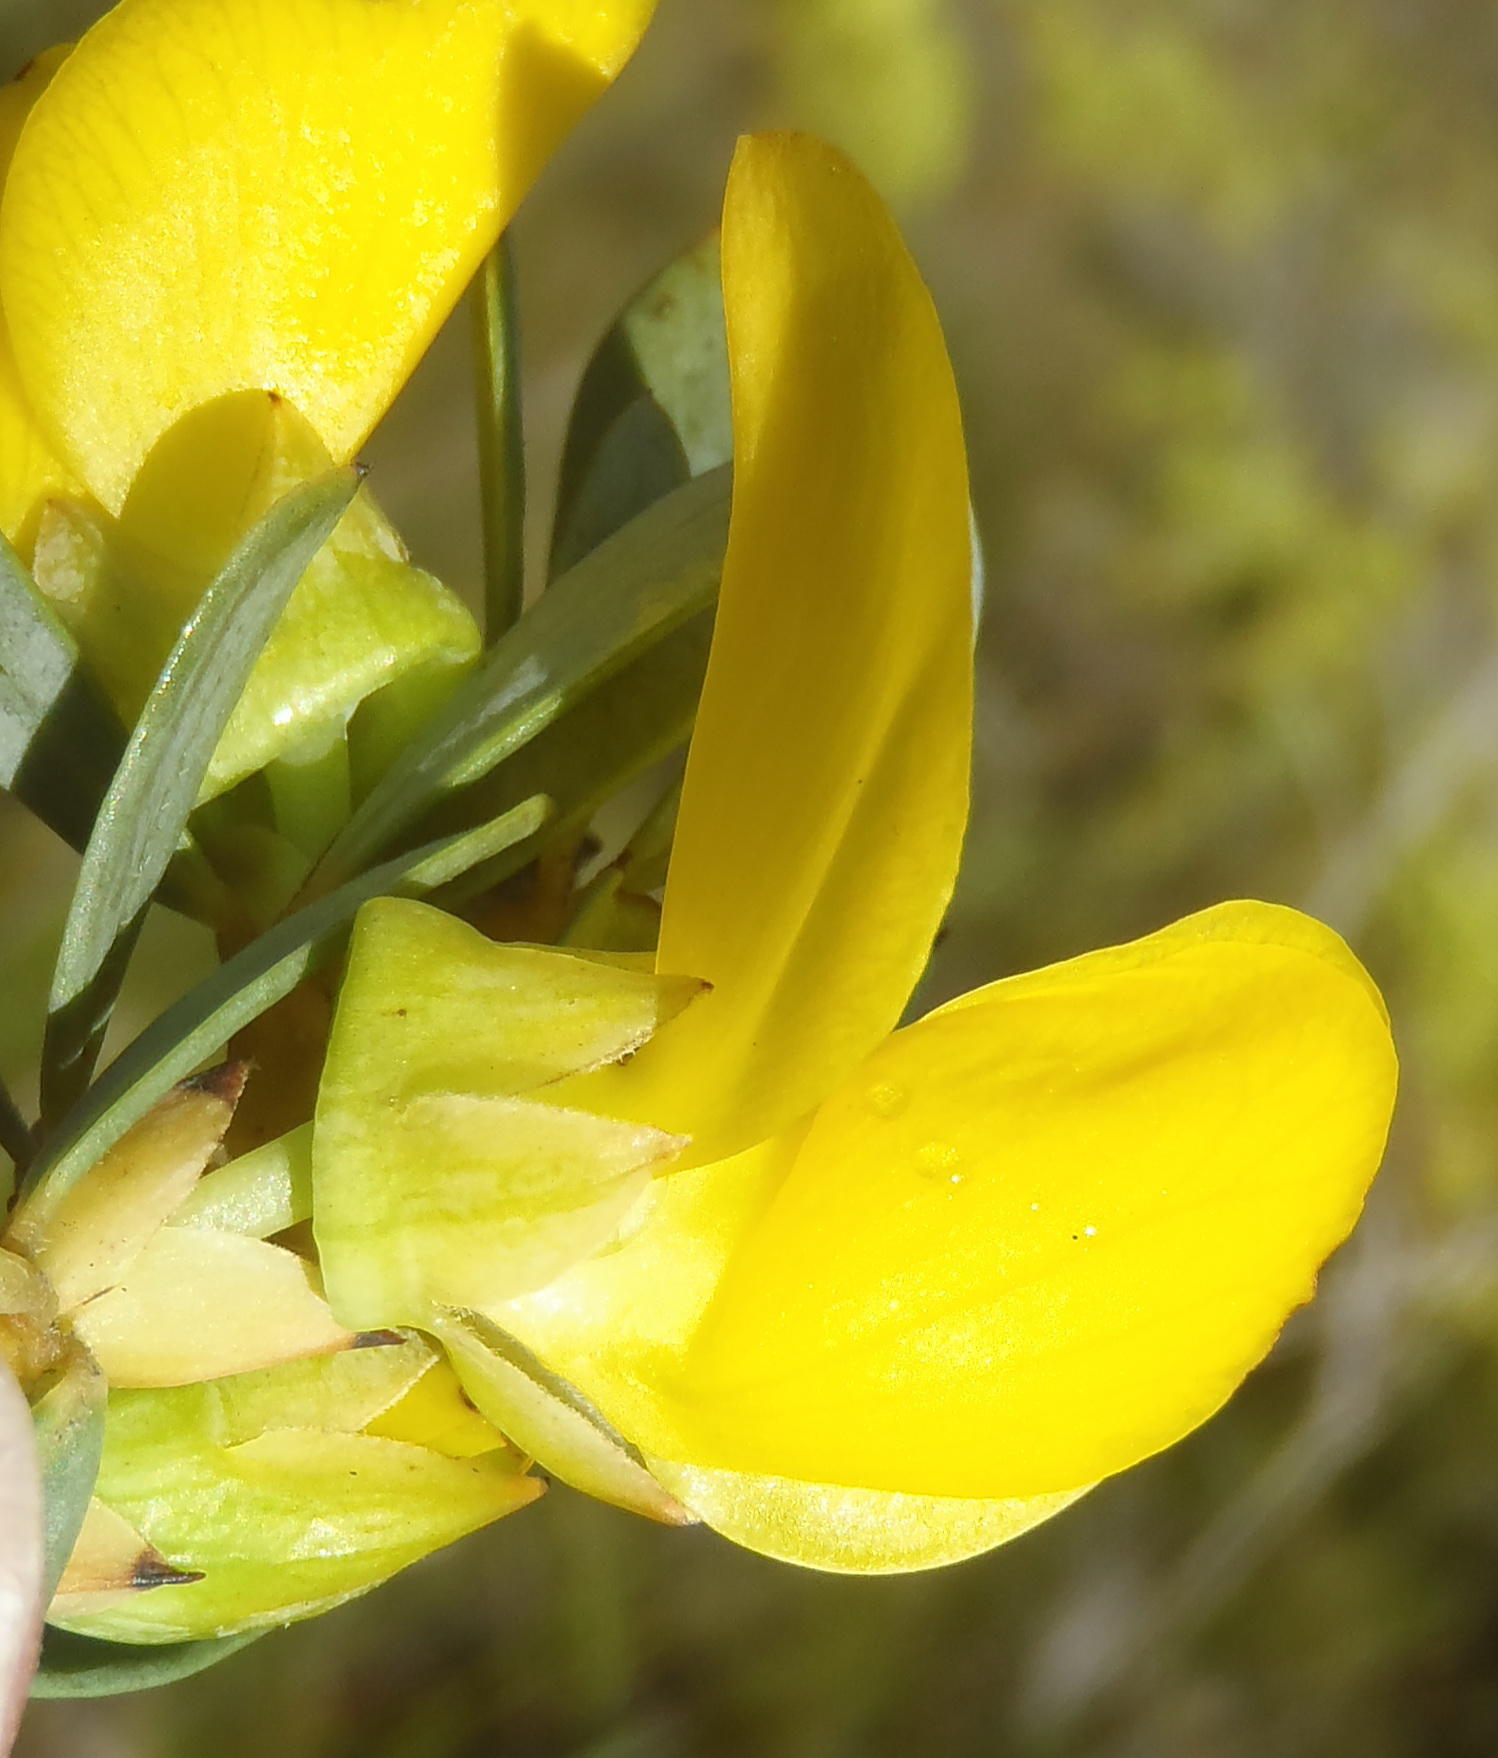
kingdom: Plantae
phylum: Tracheophyta
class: Magnoliopsida
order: Fabales
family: Fabaceae
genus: Cyclopia
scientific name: Cyclopia intermedia
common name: Mountain tea
